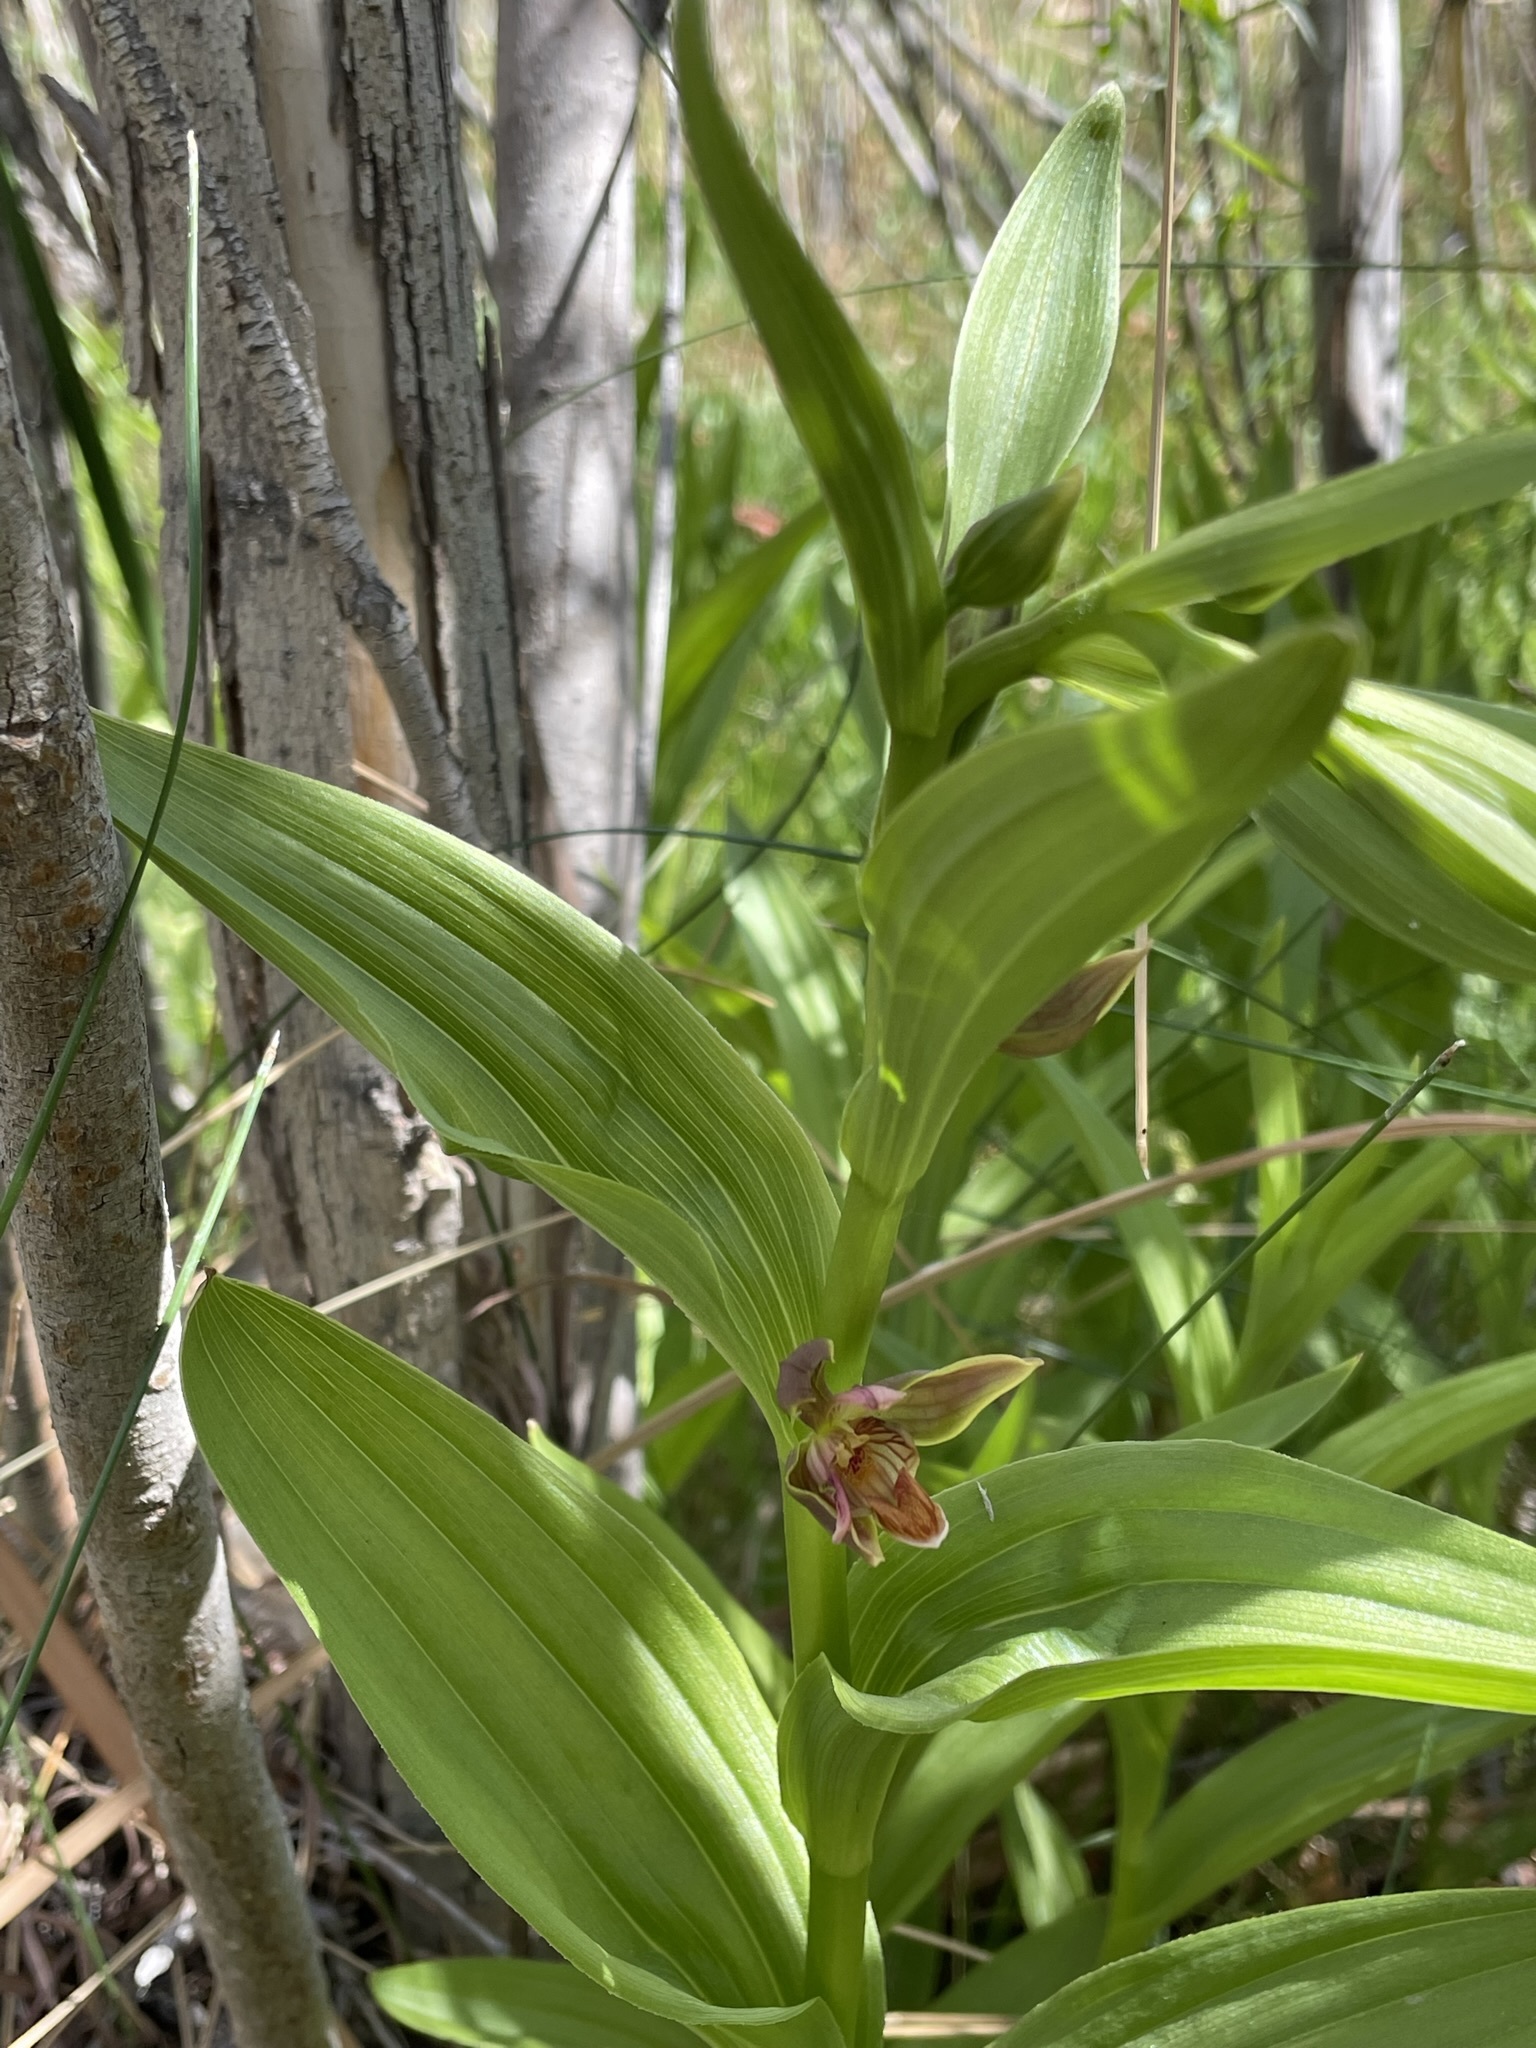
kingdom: Plantae
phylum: Tracheophyta
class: Liliopsida
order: Asparagales
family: Orchidaceae
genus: Epipactis
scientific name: Epipactis gigantea
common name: Chatterbox
